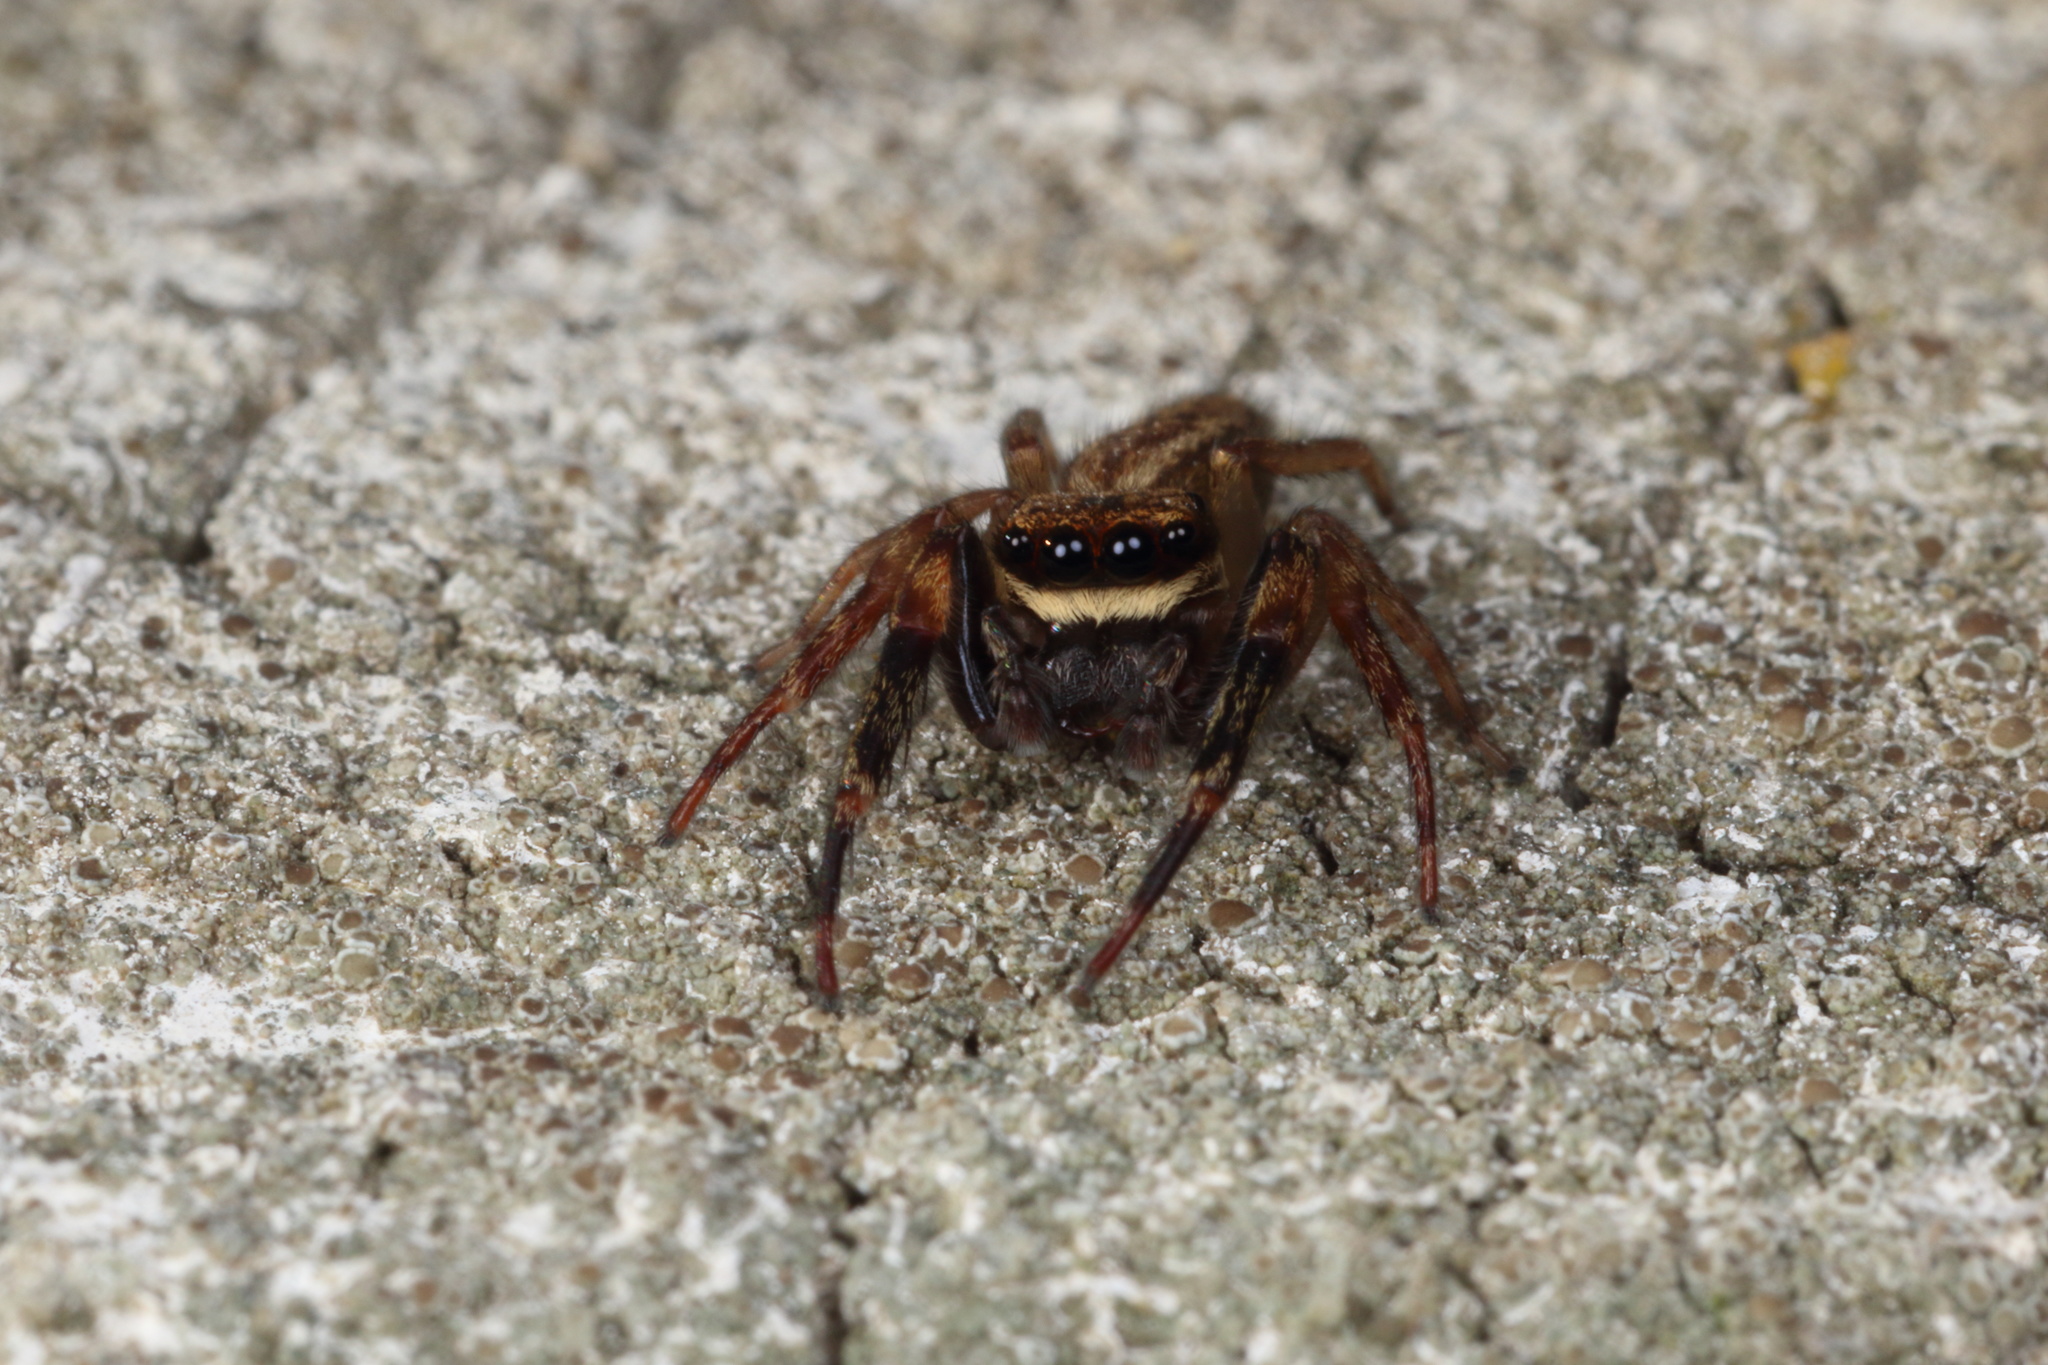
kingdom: Animalia
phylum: Arthropoda
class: Arachnida
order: Araneae
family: Salticidae
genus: Trite
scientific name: Trite auricoma
